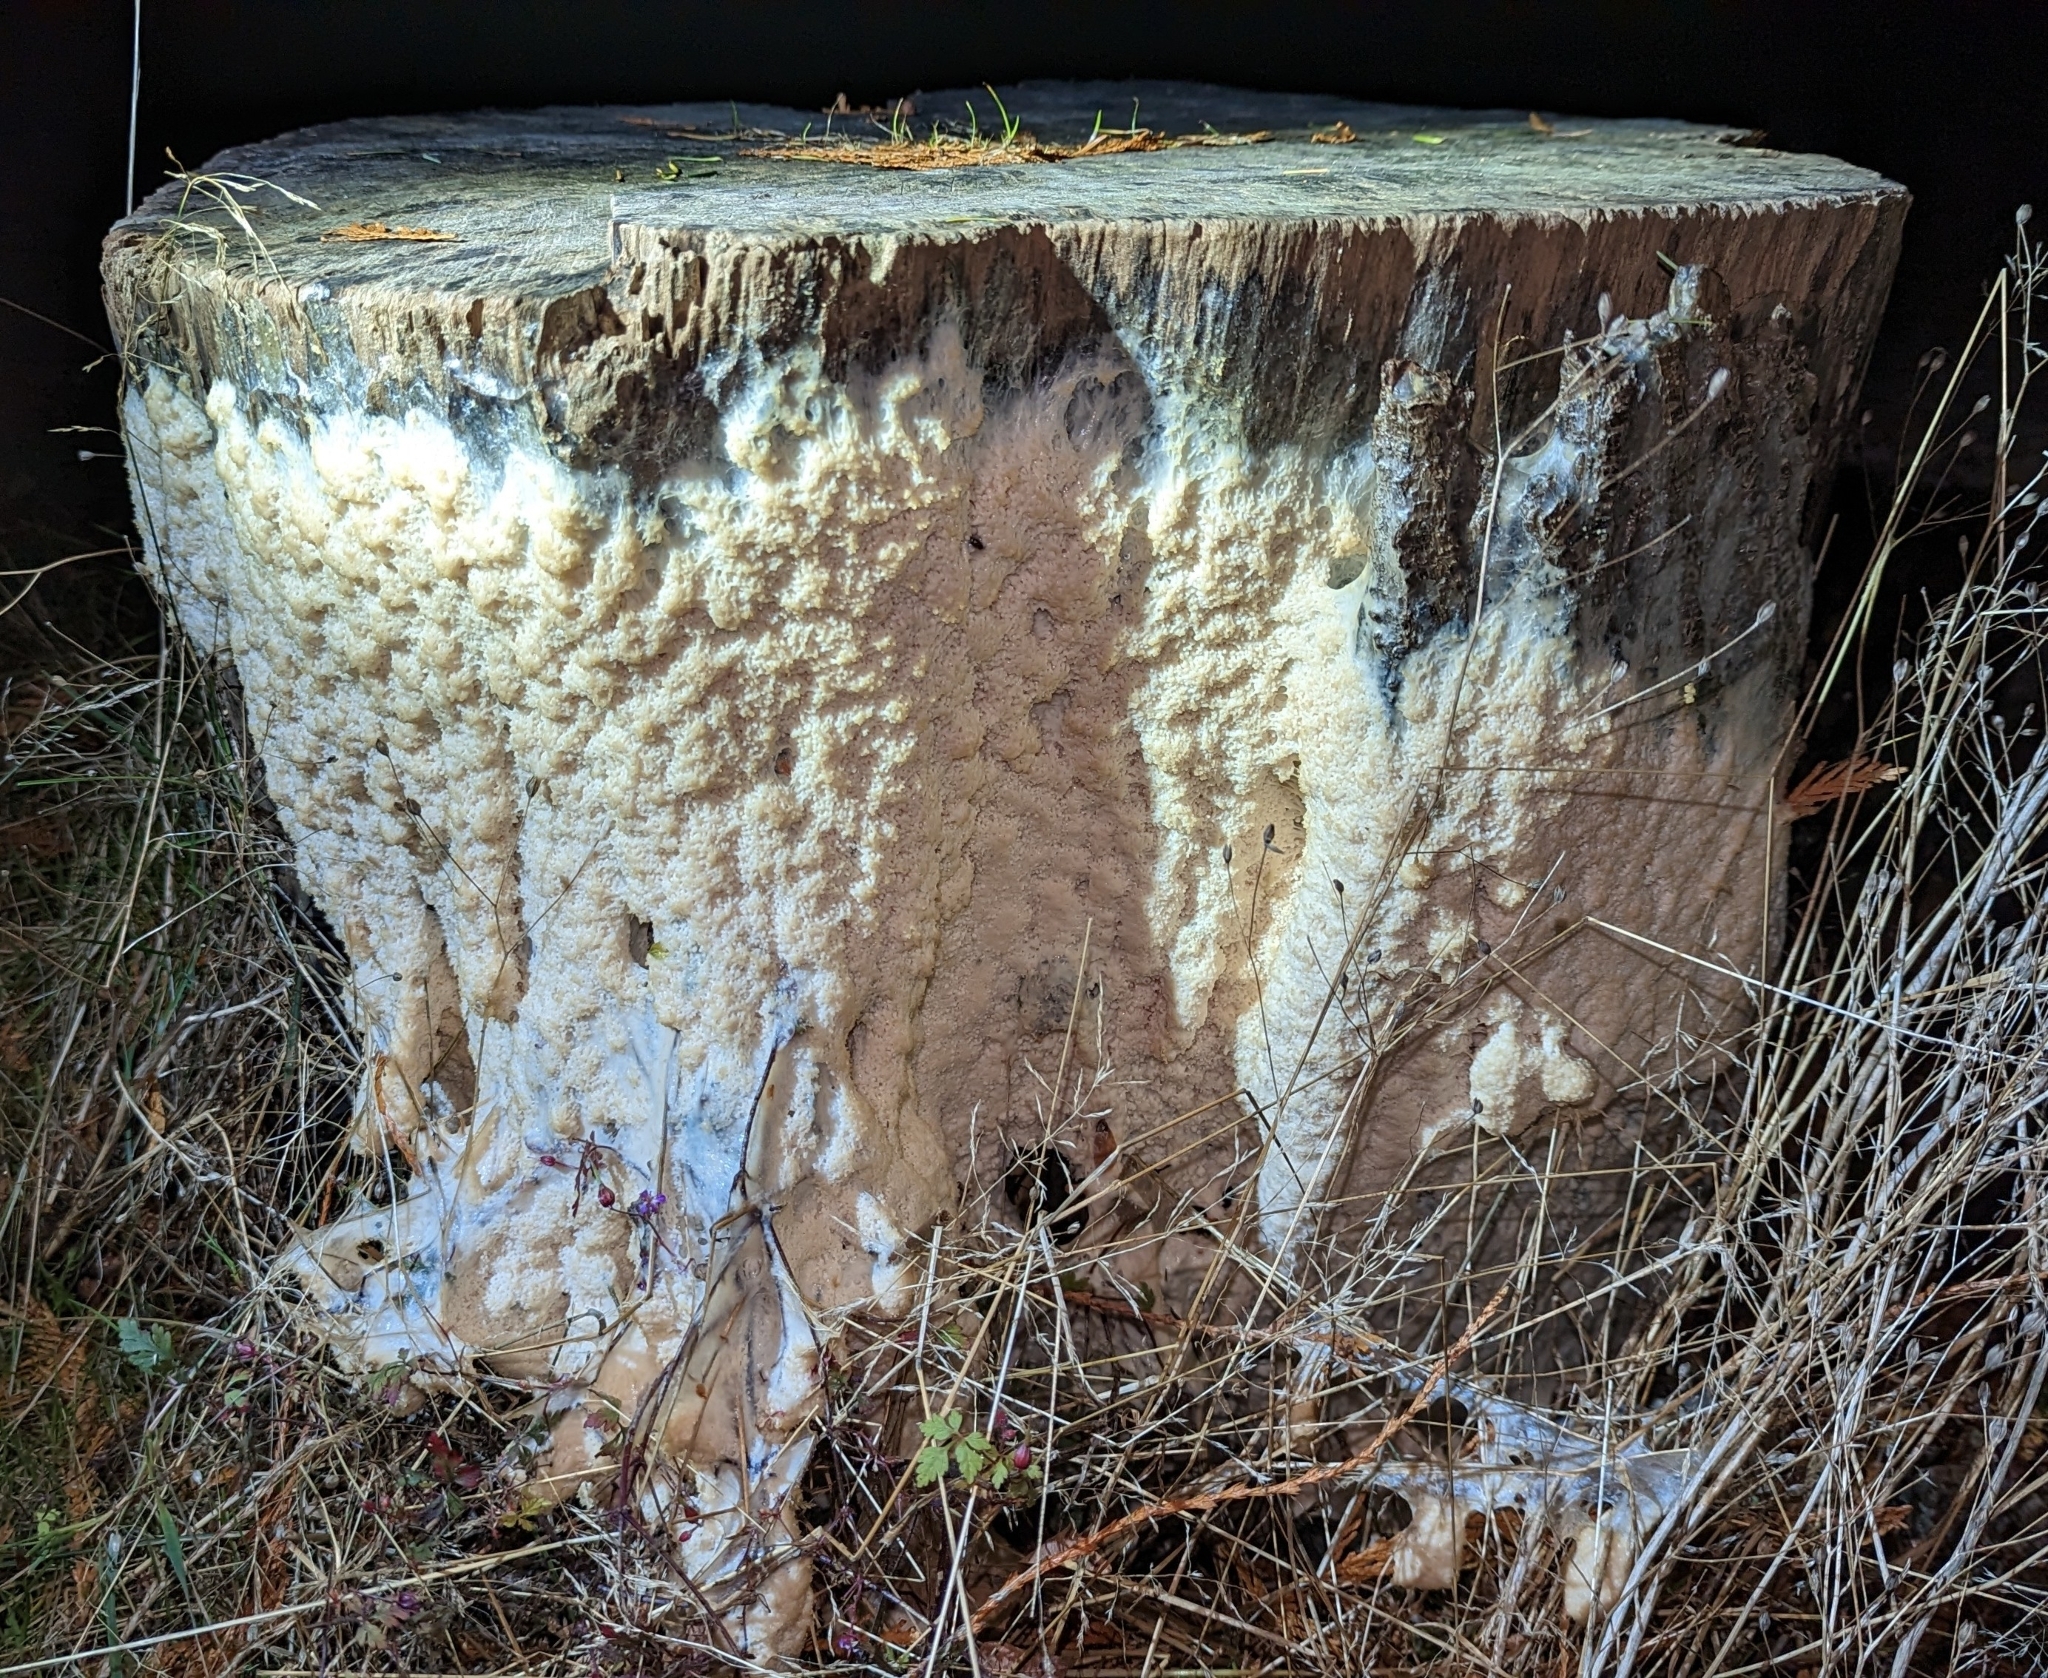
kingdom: Protozoa
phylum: Mycetozoa
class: Myxomycetes
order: Stemonitidales
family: Stemonitidaceae
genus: Brefeldia
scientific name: Brefeldia maxima
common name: Tapioca slime mold
